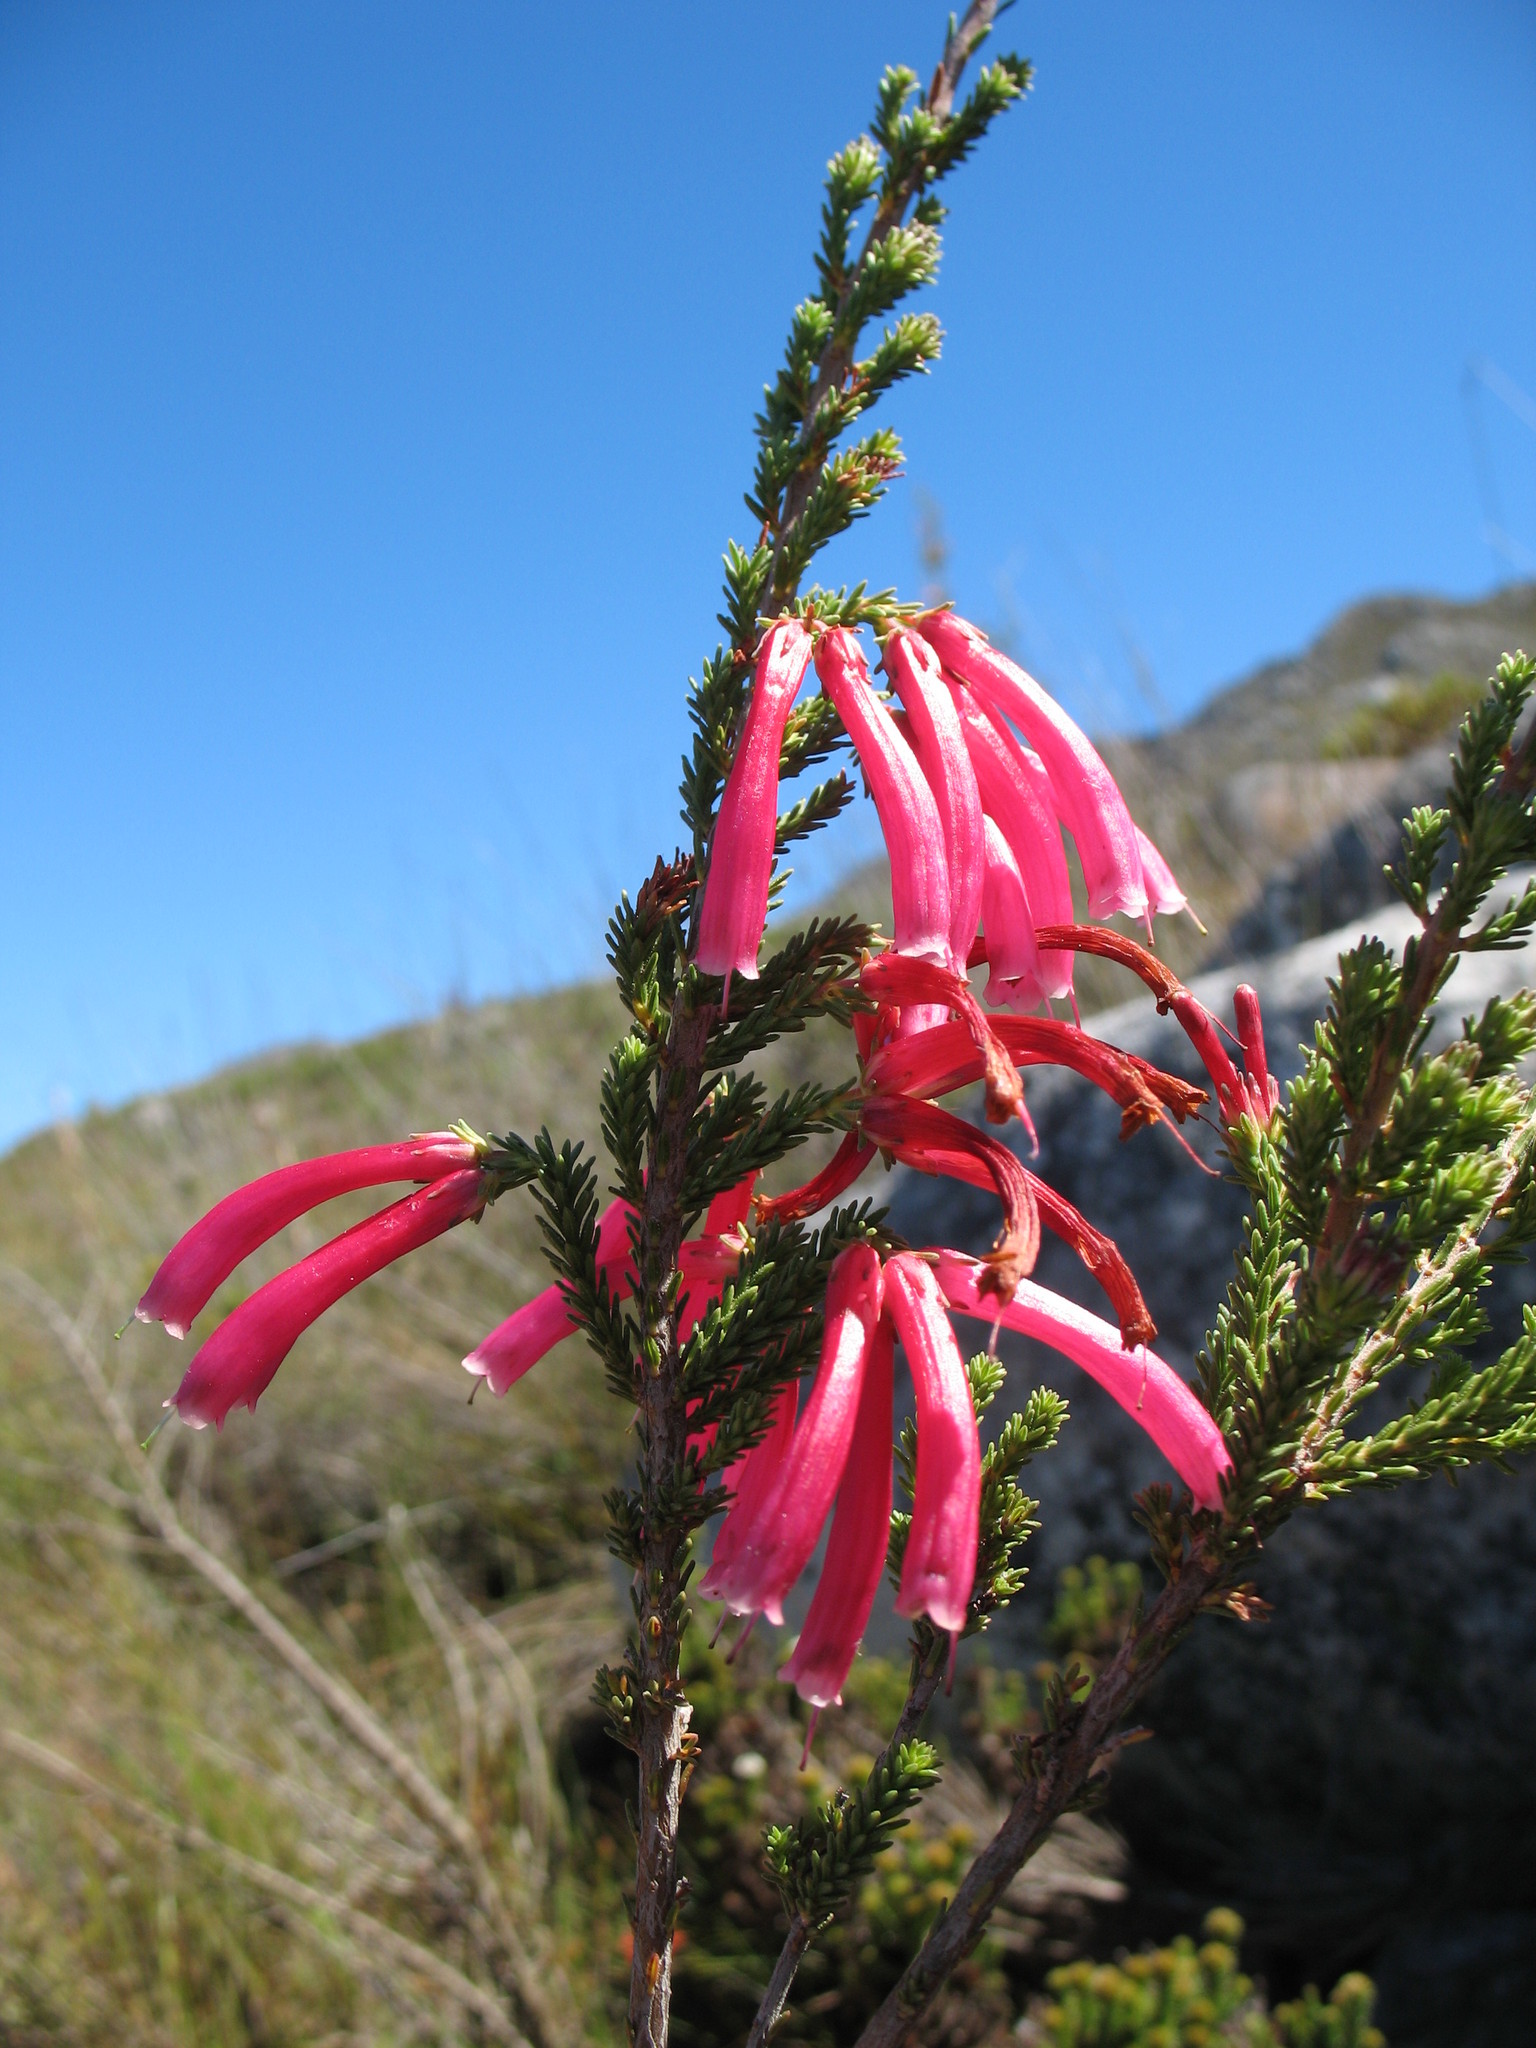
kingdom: Plantae
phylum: Tracheophyta
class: Magnoliopsida
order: Ericales
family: Ericaceae
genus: Erica
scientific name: Erica discolor
